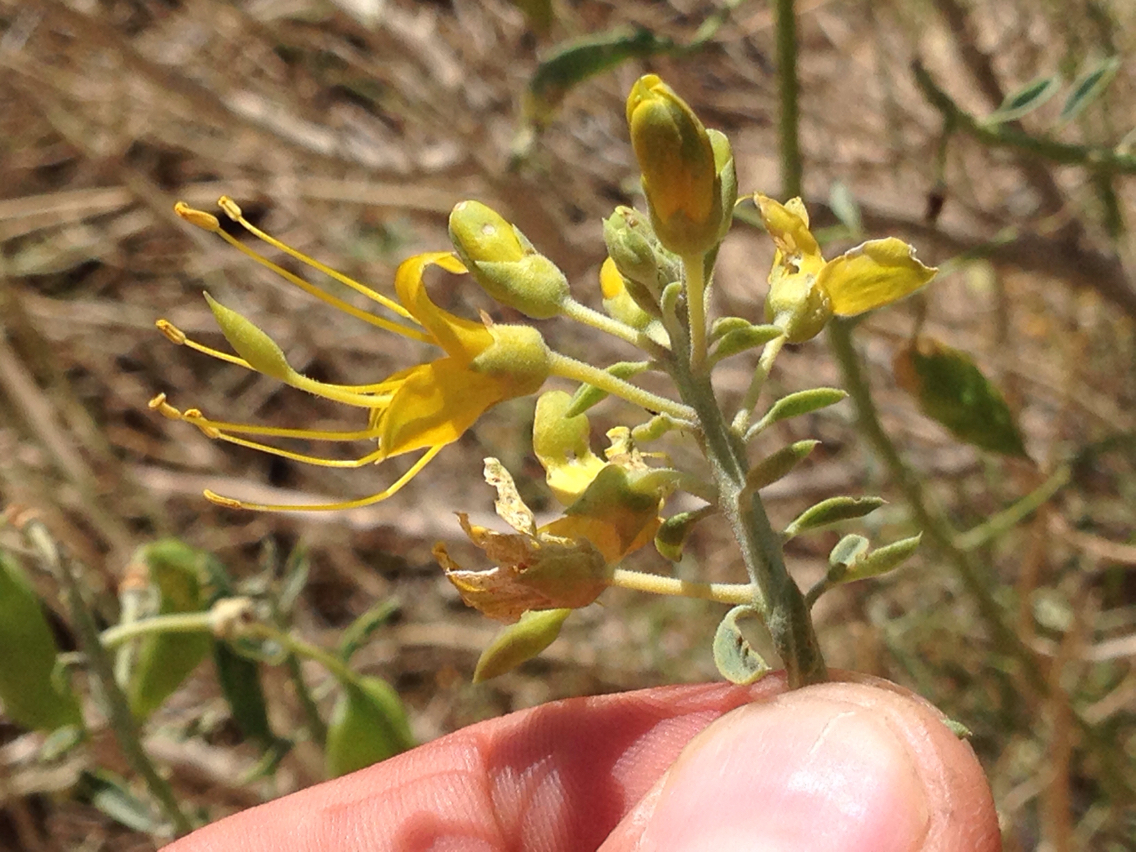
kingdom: Plantae
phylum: Tracheophyta
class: Magnoliopsida
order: Brassicales
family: Cleomaceae
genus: Cleomella
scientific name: Cleomella arborea
